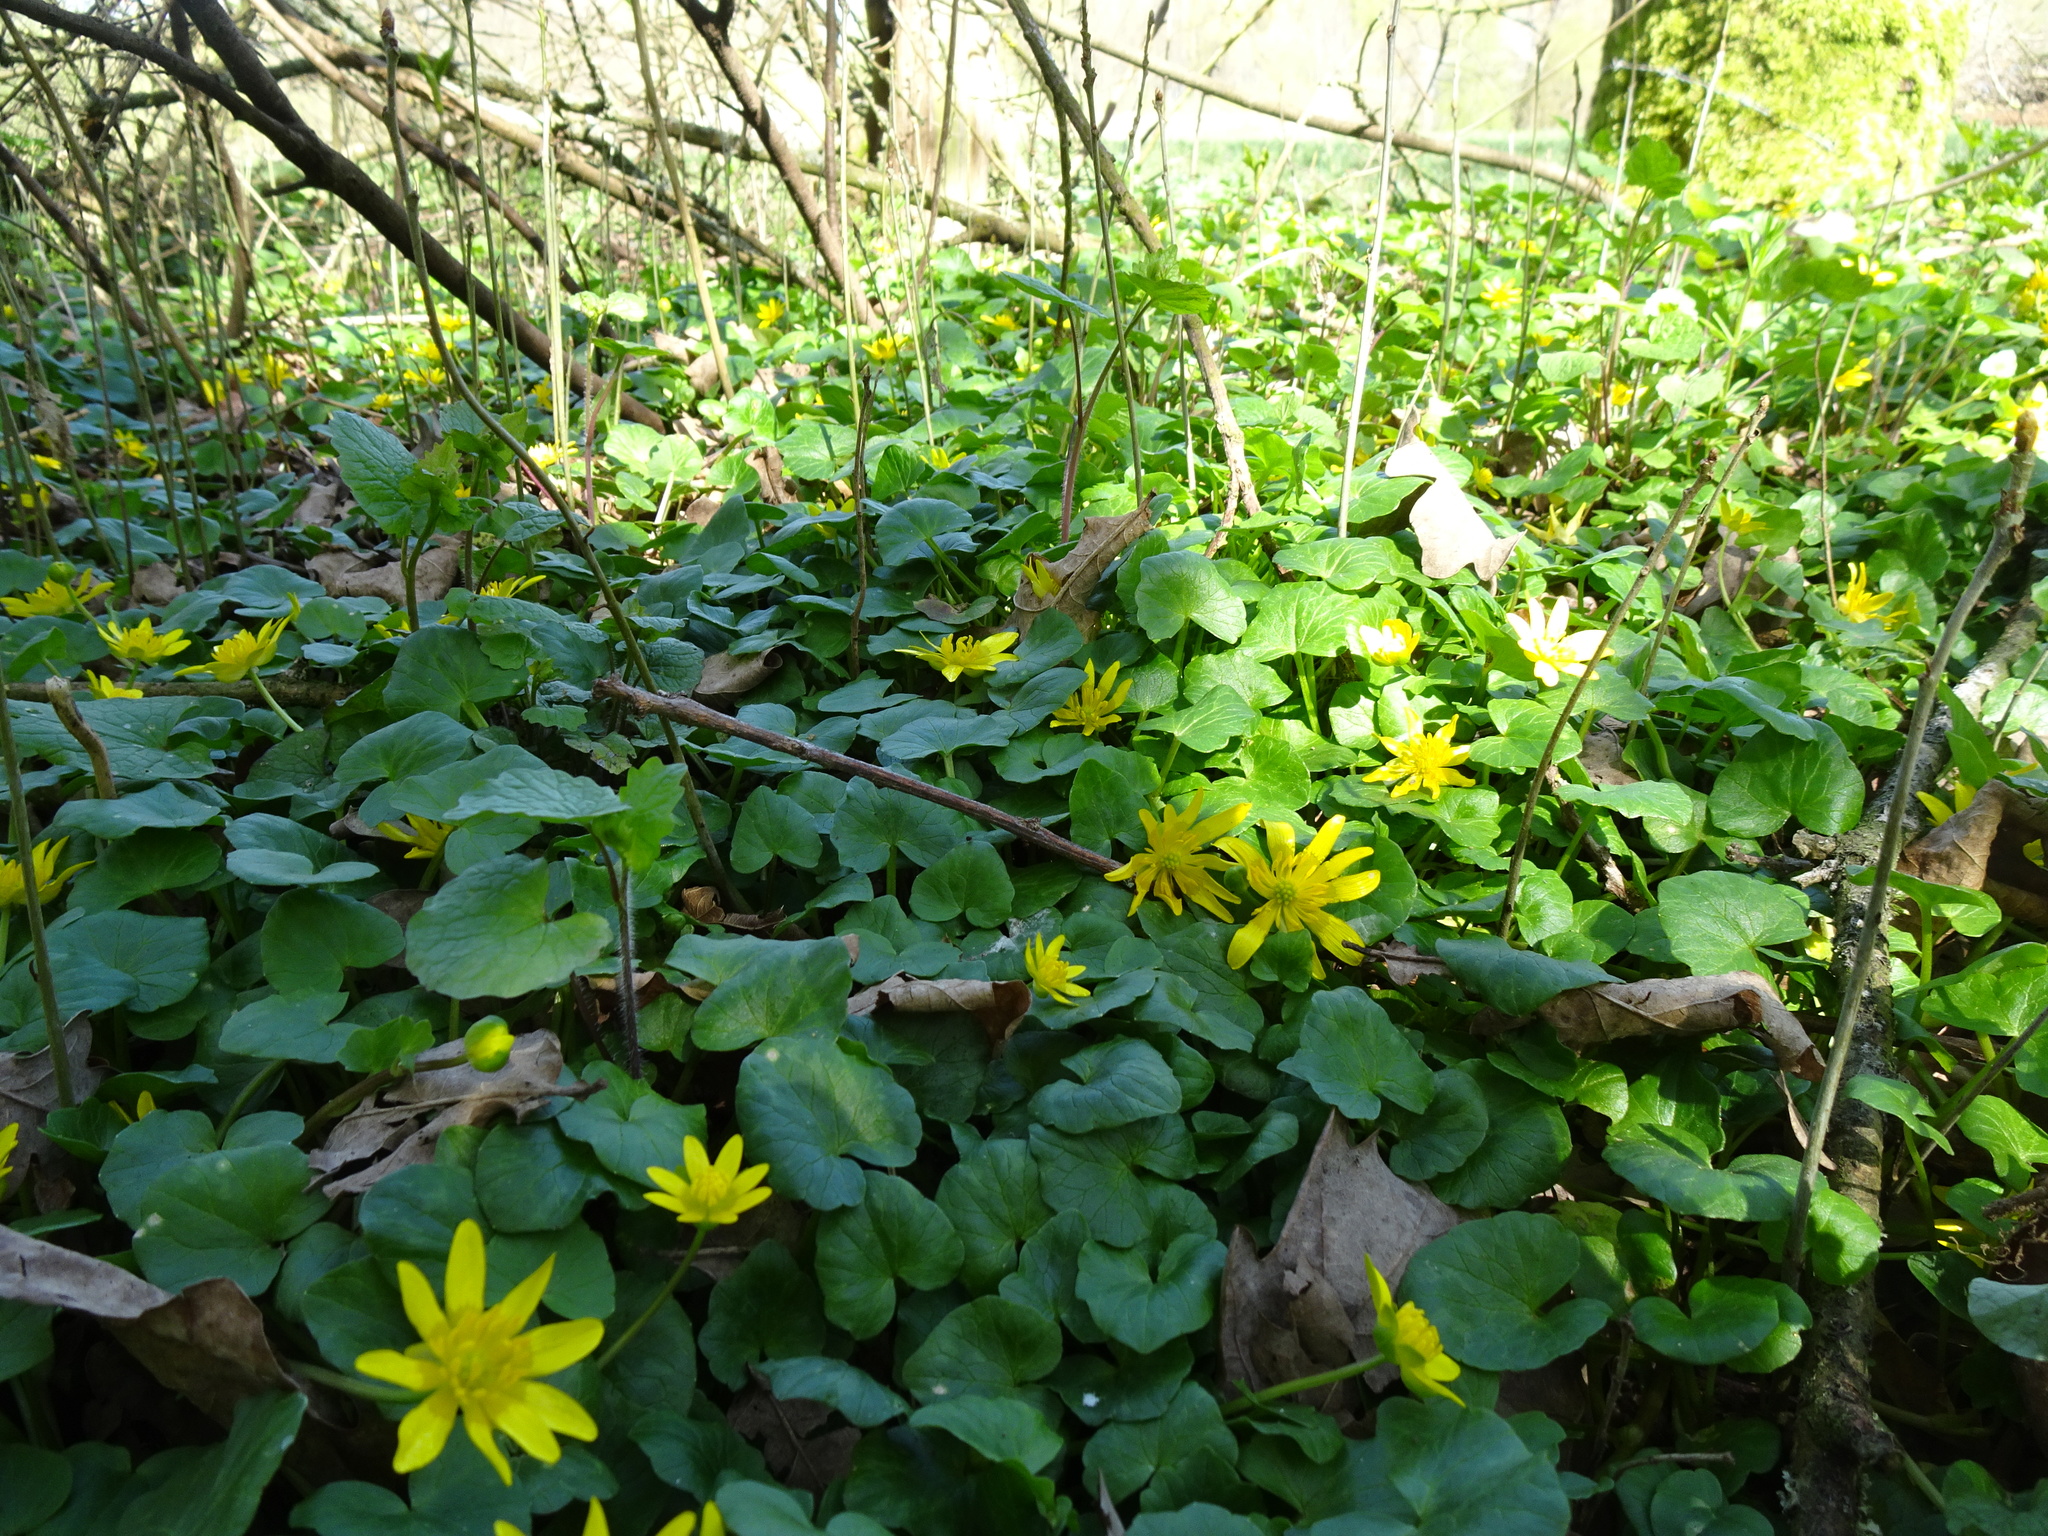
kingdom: Plantae
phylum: Tracheophyta
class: Magnoliopsida
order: Ranunculales
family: Ranunculaceae
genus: Ficaria
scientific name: Ficaria verna
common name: Lesser celandine
